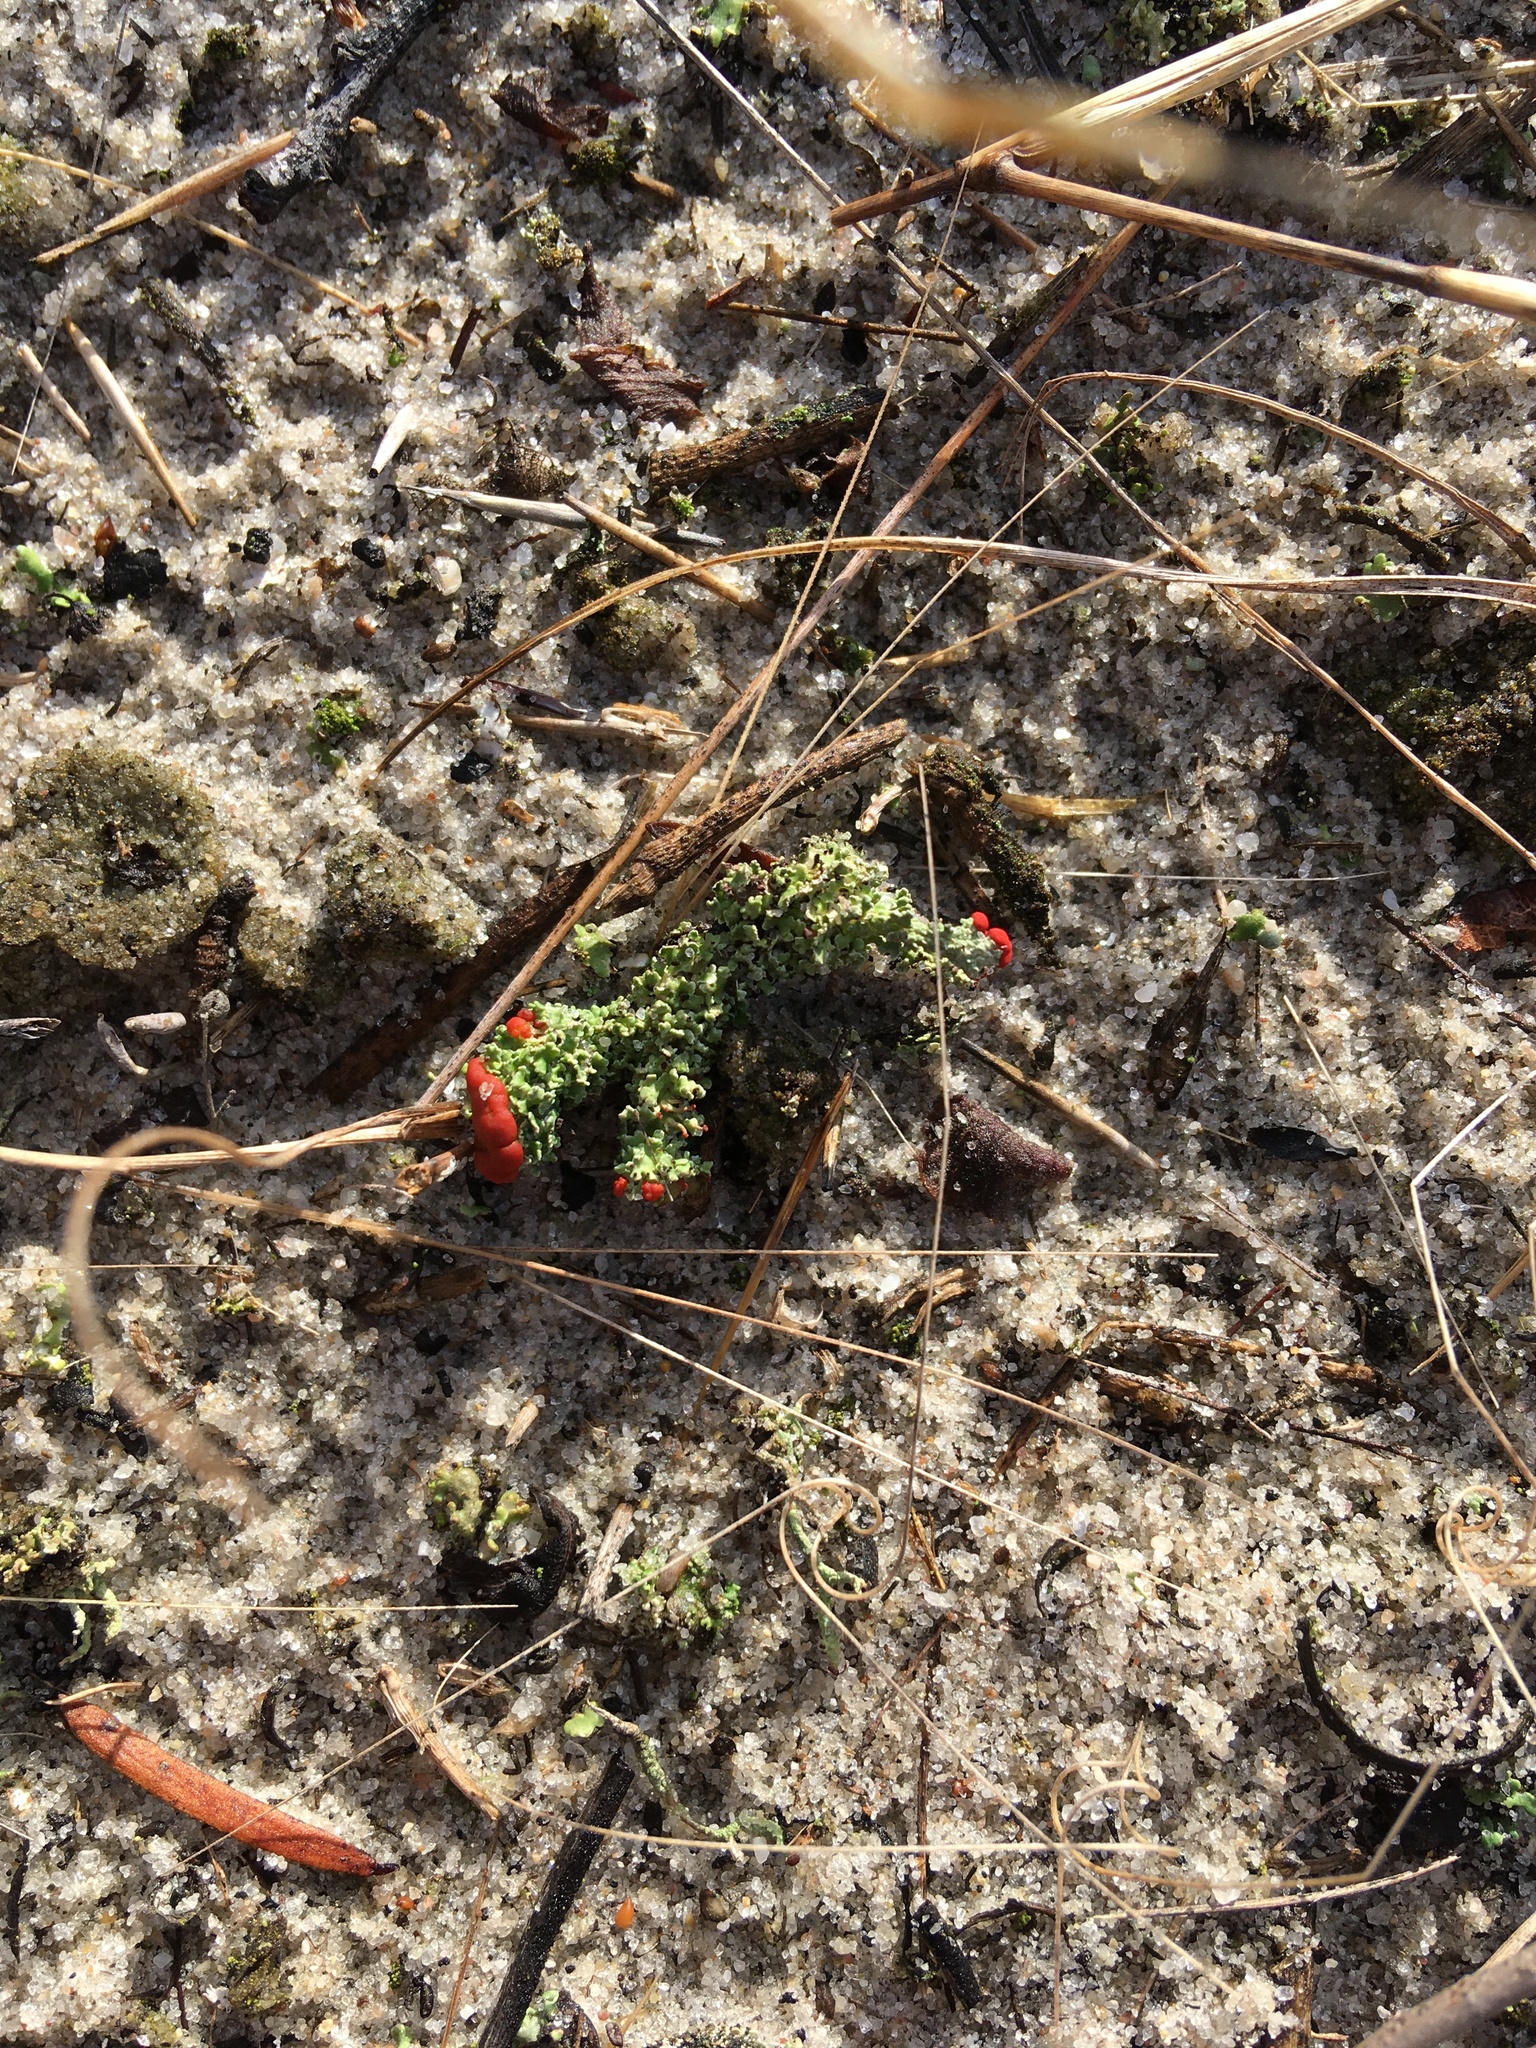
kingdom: Fungi
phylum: Ascomycota
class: Lecanoromycetes
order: Lecanorales
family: Cladoniaceae
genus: Cladonia
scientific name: Cladonia cristatella
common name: British soldier lichen
